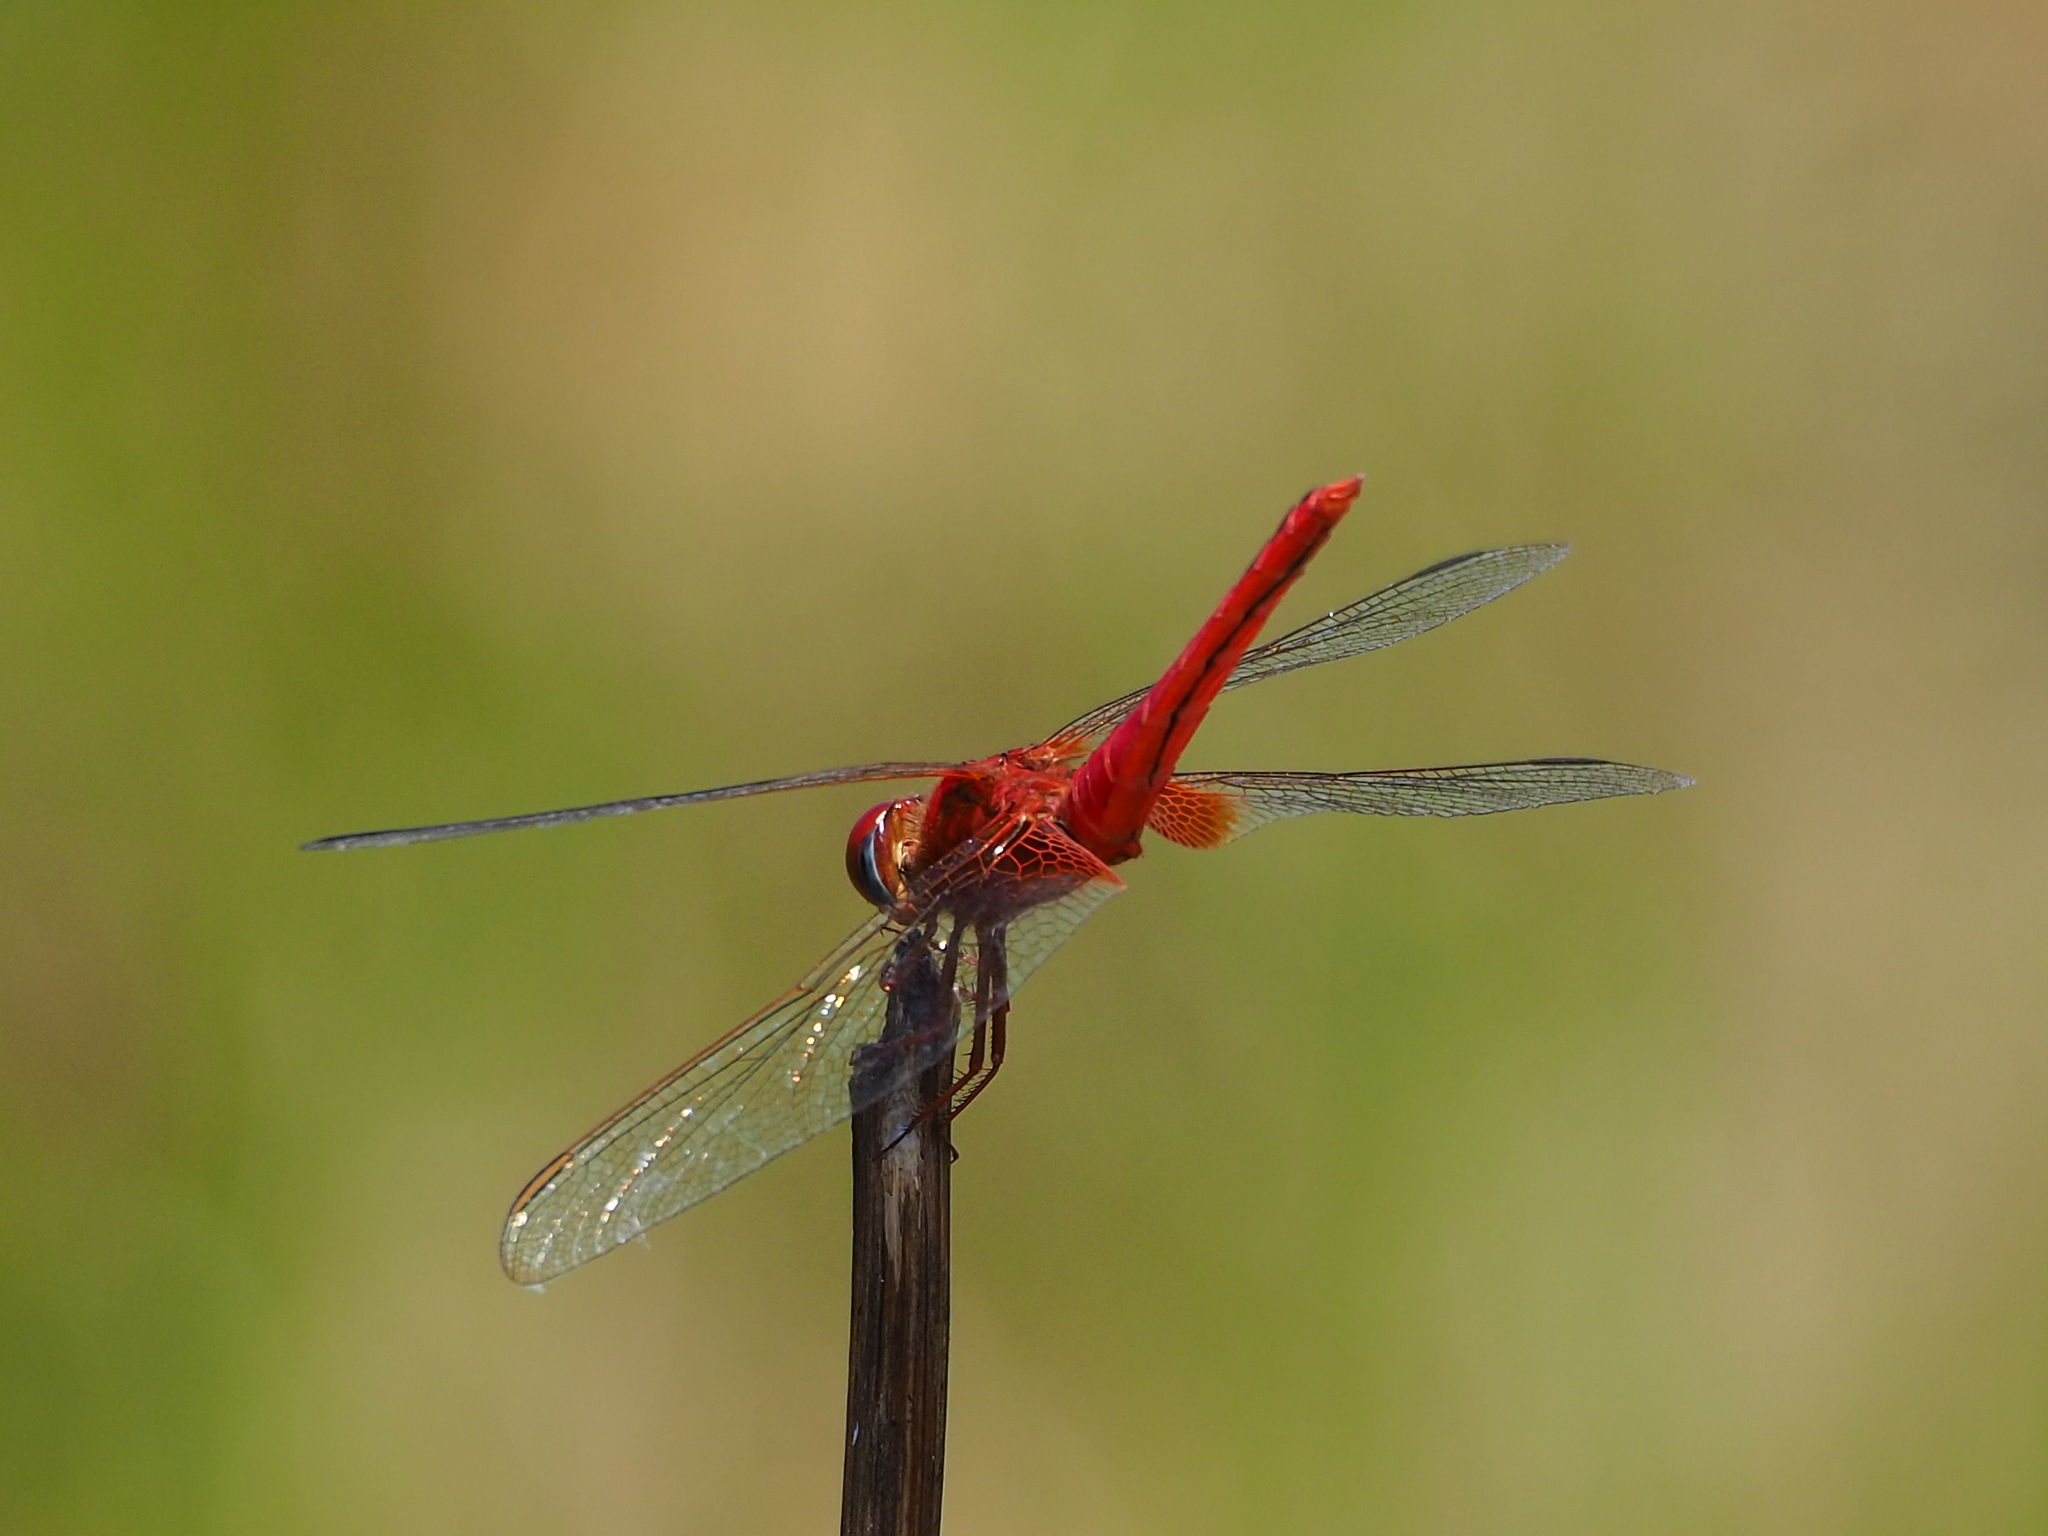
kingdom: Animalia
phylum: Arthropoda
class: Insecta
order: Odonata
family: Libellulidae
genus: Crocothemis
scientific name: Crocothemis servilia
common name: Scarlet skimmer
